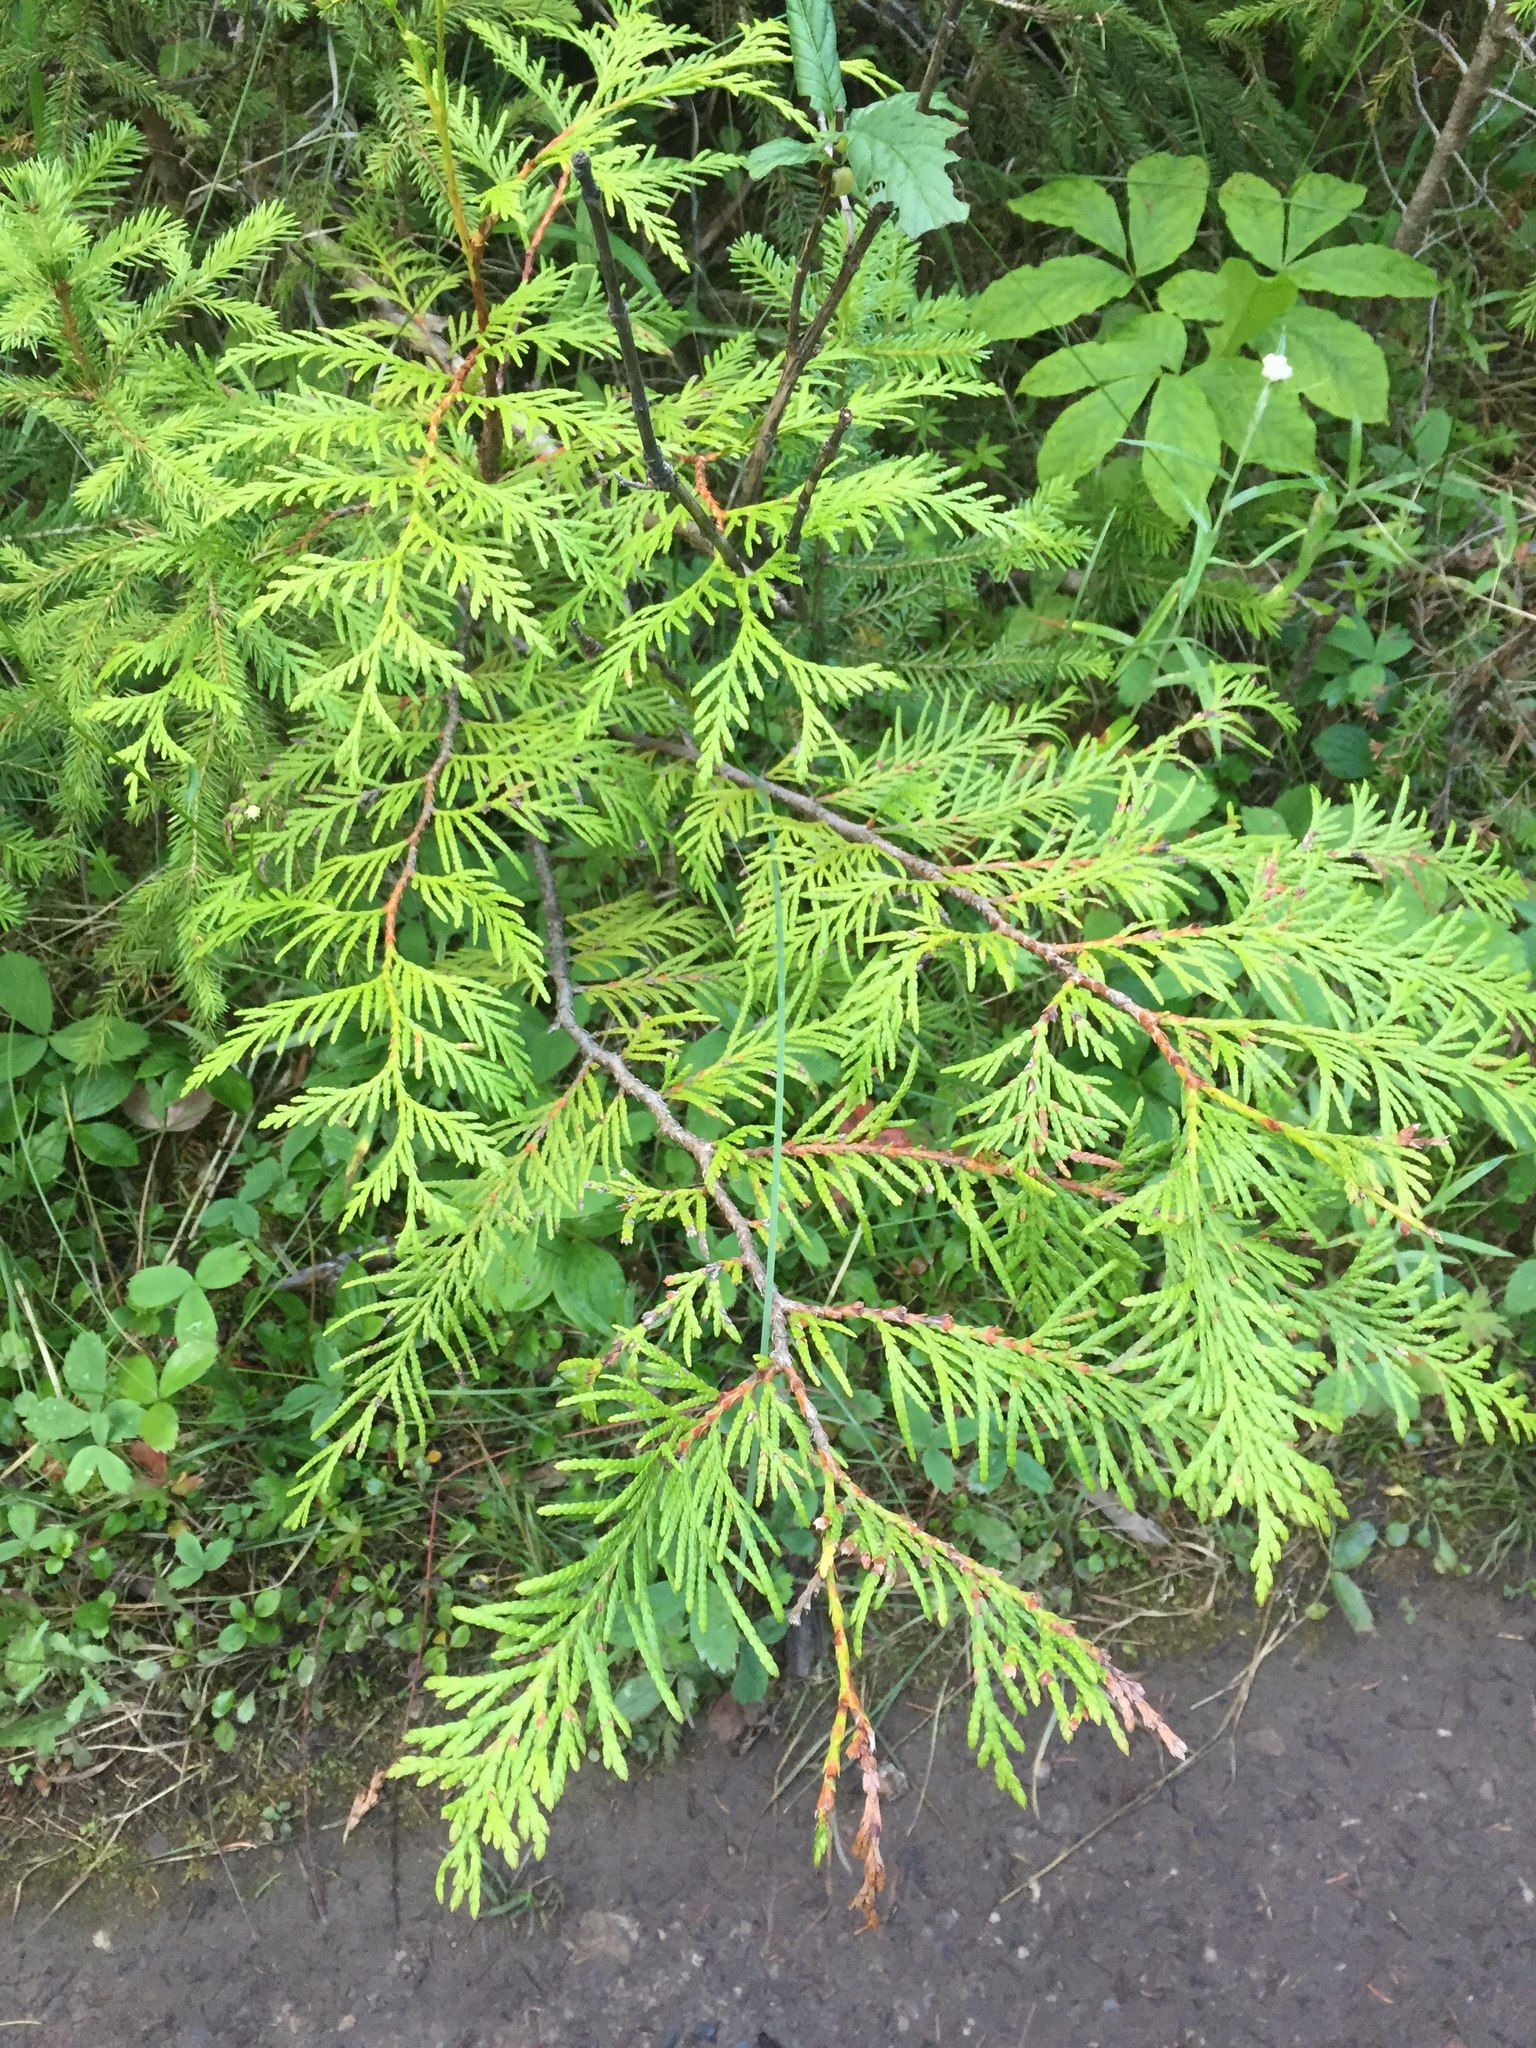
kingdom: Plantae
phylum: Tracheophyta
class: Pinopsida
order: Pinales
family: Cupressaceae
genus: Thuja
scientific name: Thuja plicata
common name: Western red-cedar
